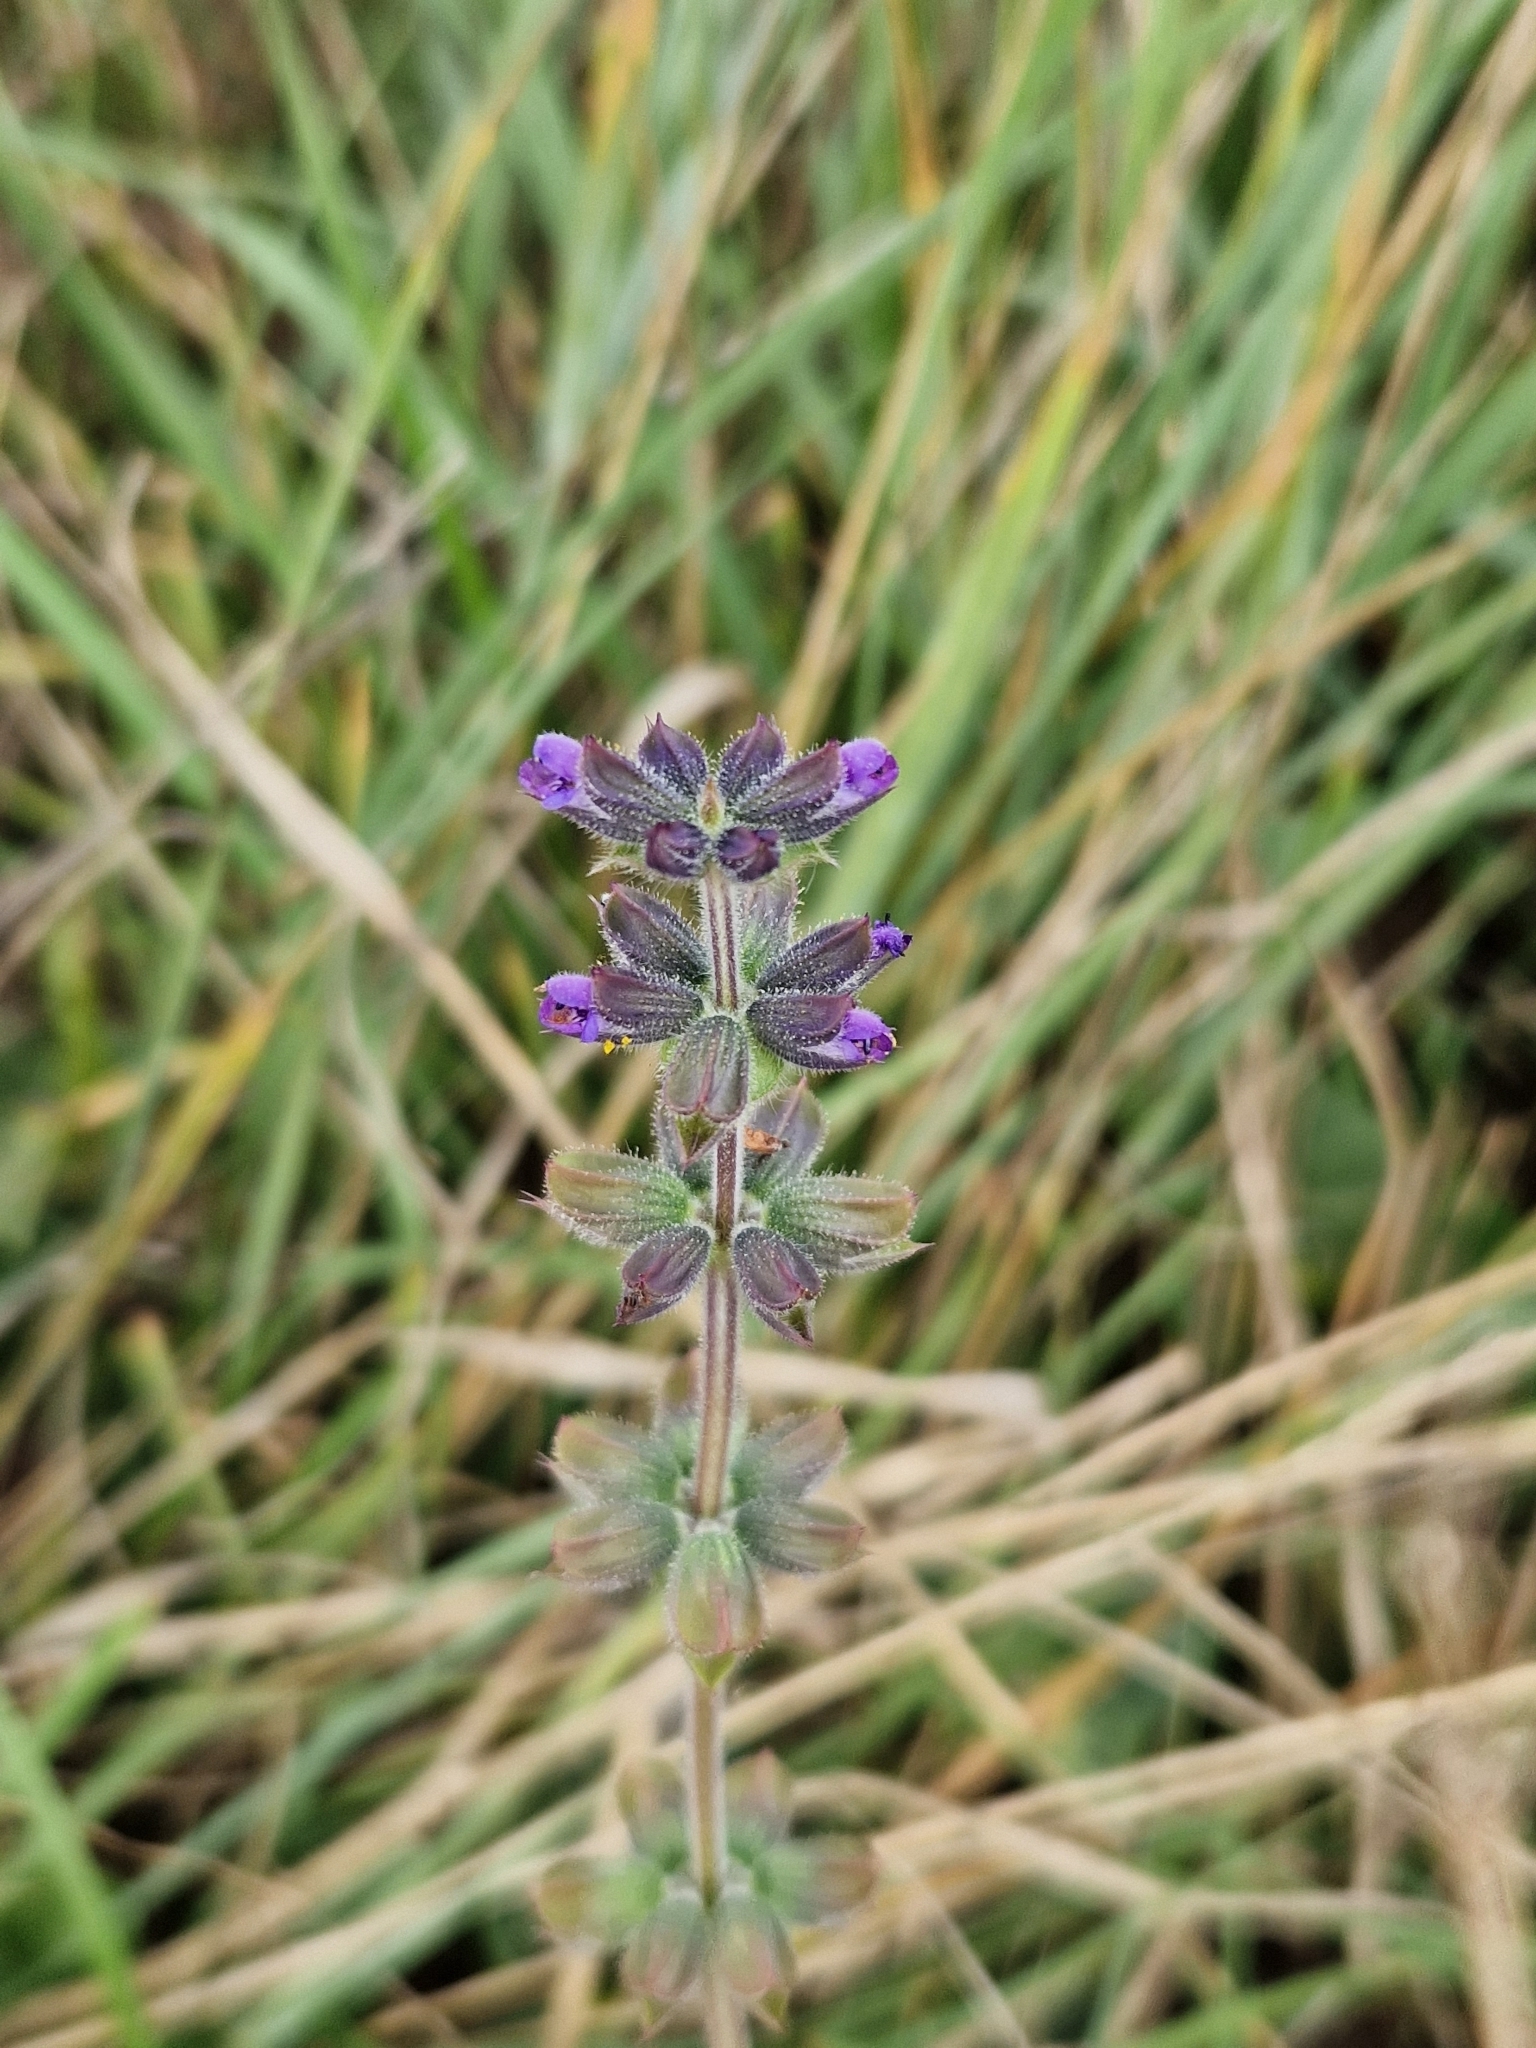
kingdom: Plantae
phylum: Tracheophyta
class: Magnoliopsida
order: Lamiales
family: Lamiaceae
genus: Salvia
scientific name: Salvia verbenaca
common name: Wild clary
